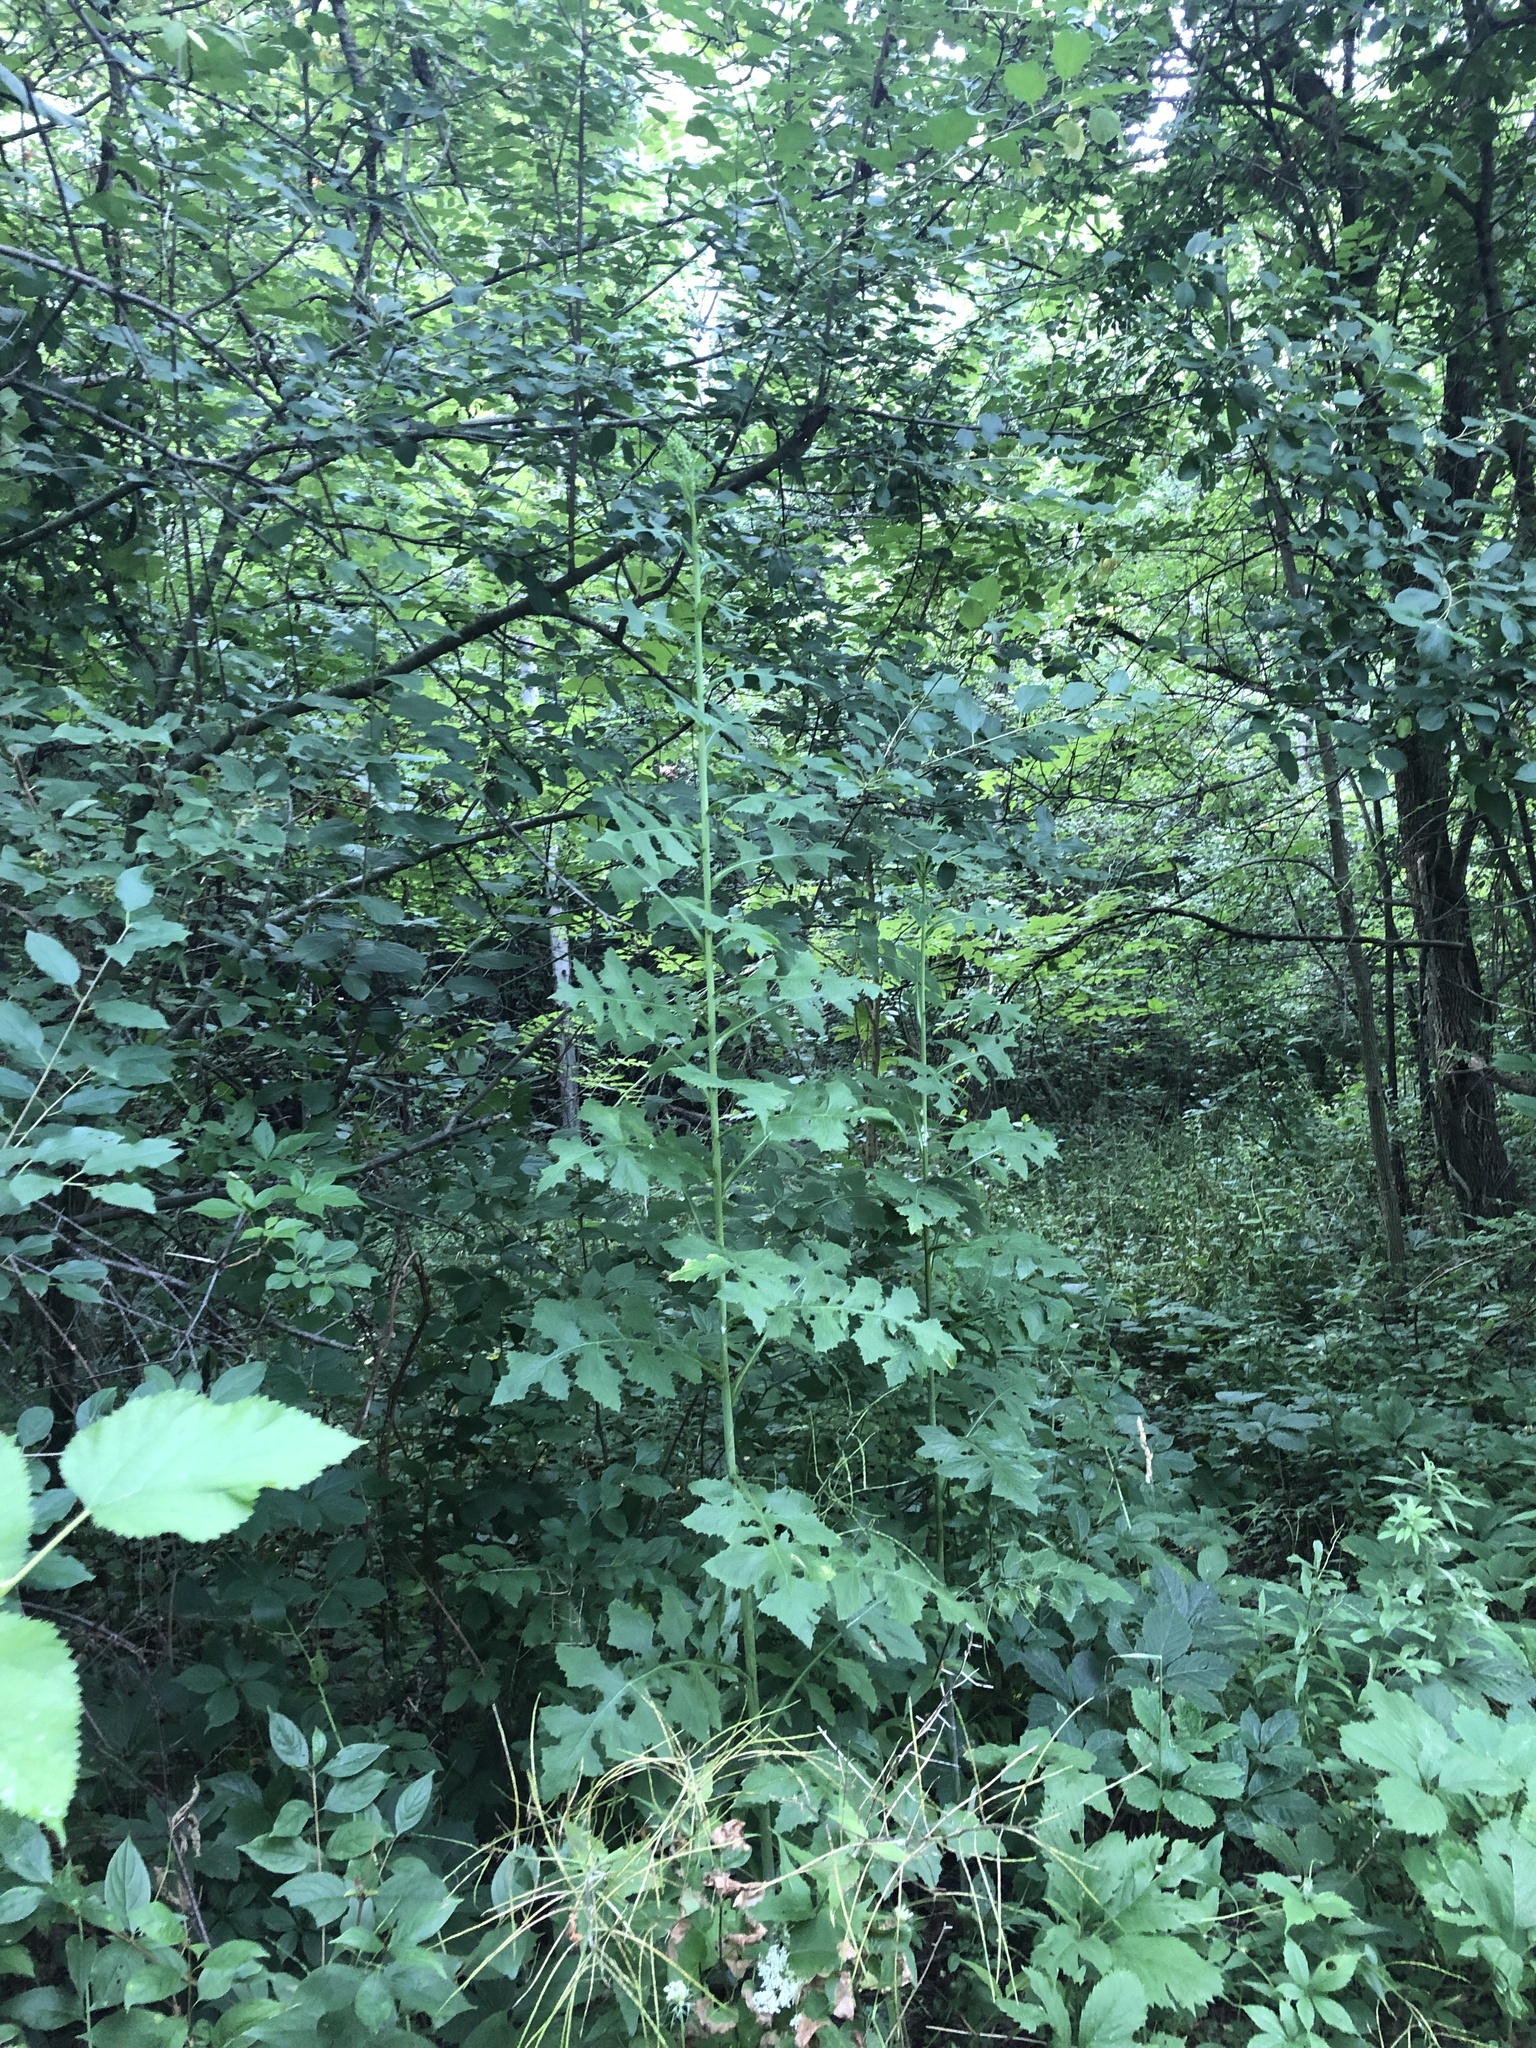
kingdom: Plantae
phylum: Tracheophyta
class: Magnoliopsida
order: Asterales
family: Asteraceae
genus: Lactuca
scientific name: Lactuca biennis
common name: Blue wood lettuce
